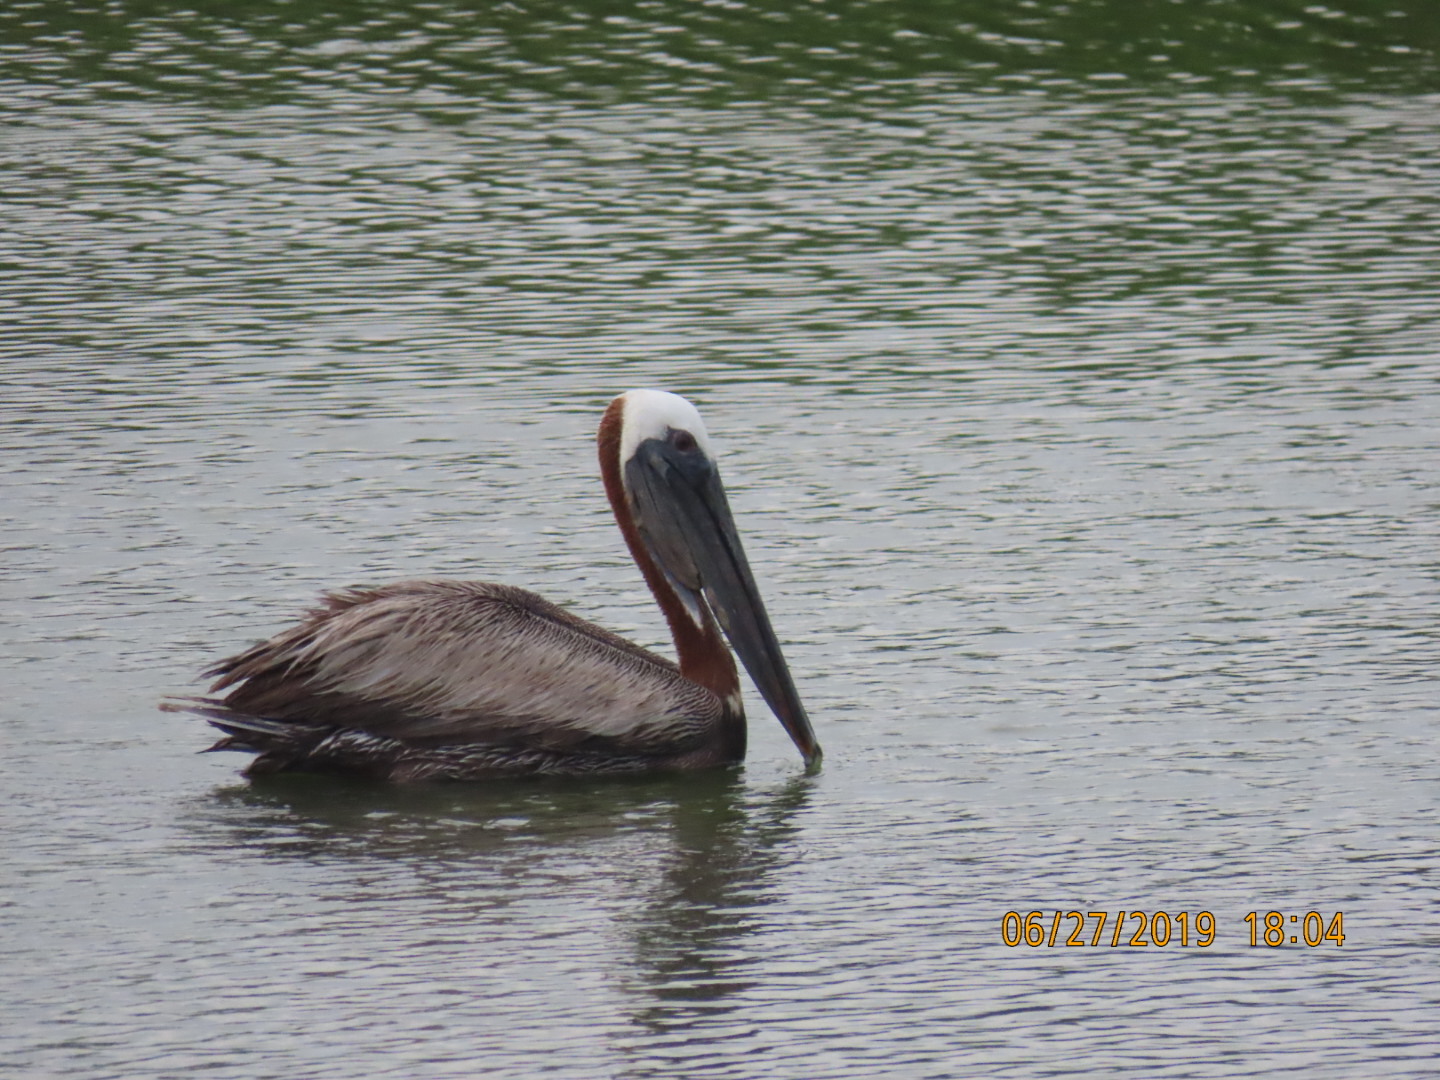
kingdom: Animalia
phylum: Chordata
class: Aves
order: Pelecaniformes
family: Pelecanidae
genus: Pelecanus
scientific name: Pelecanus occidentalis
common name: Brown pelican
